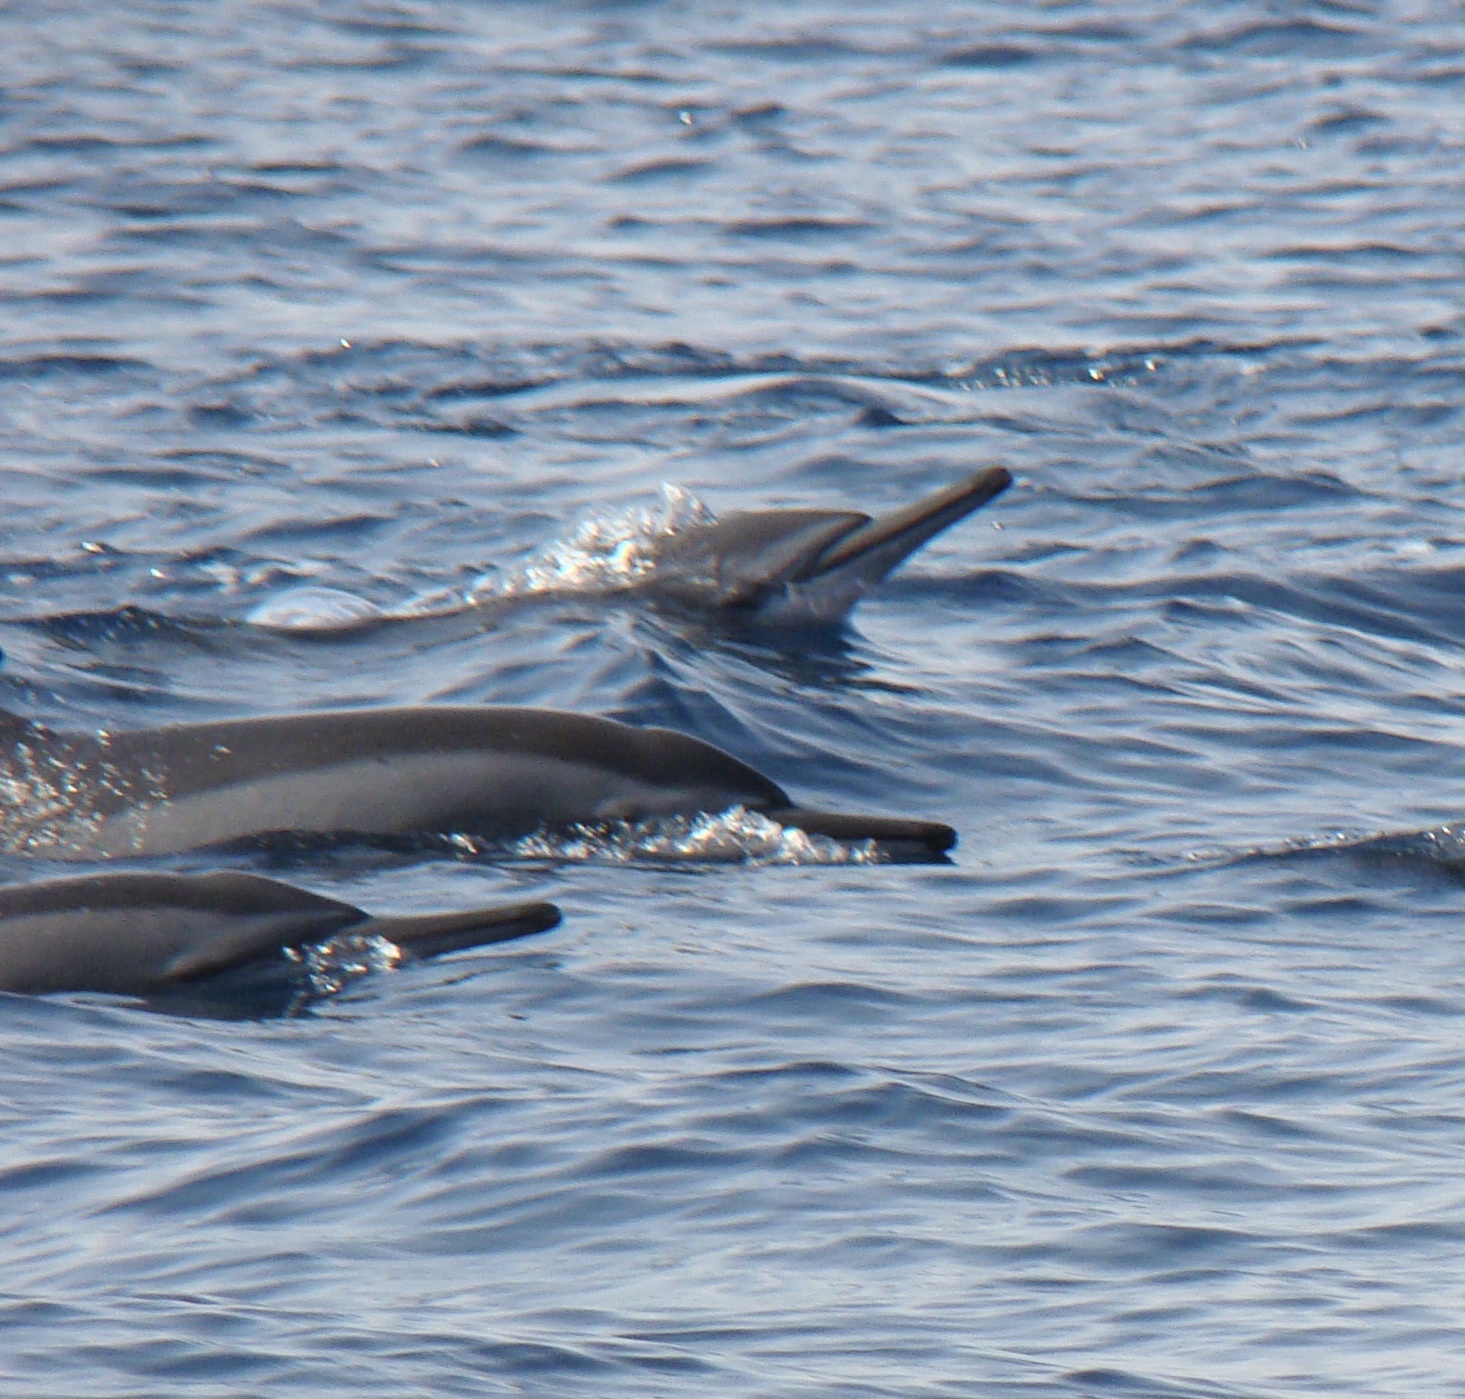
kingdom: Animalia
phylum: Chordata
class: Mammalia
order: Cetacea
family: Delphinidae
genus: Stenella
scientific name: Stenella longirostris
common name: Spinner dolphin
